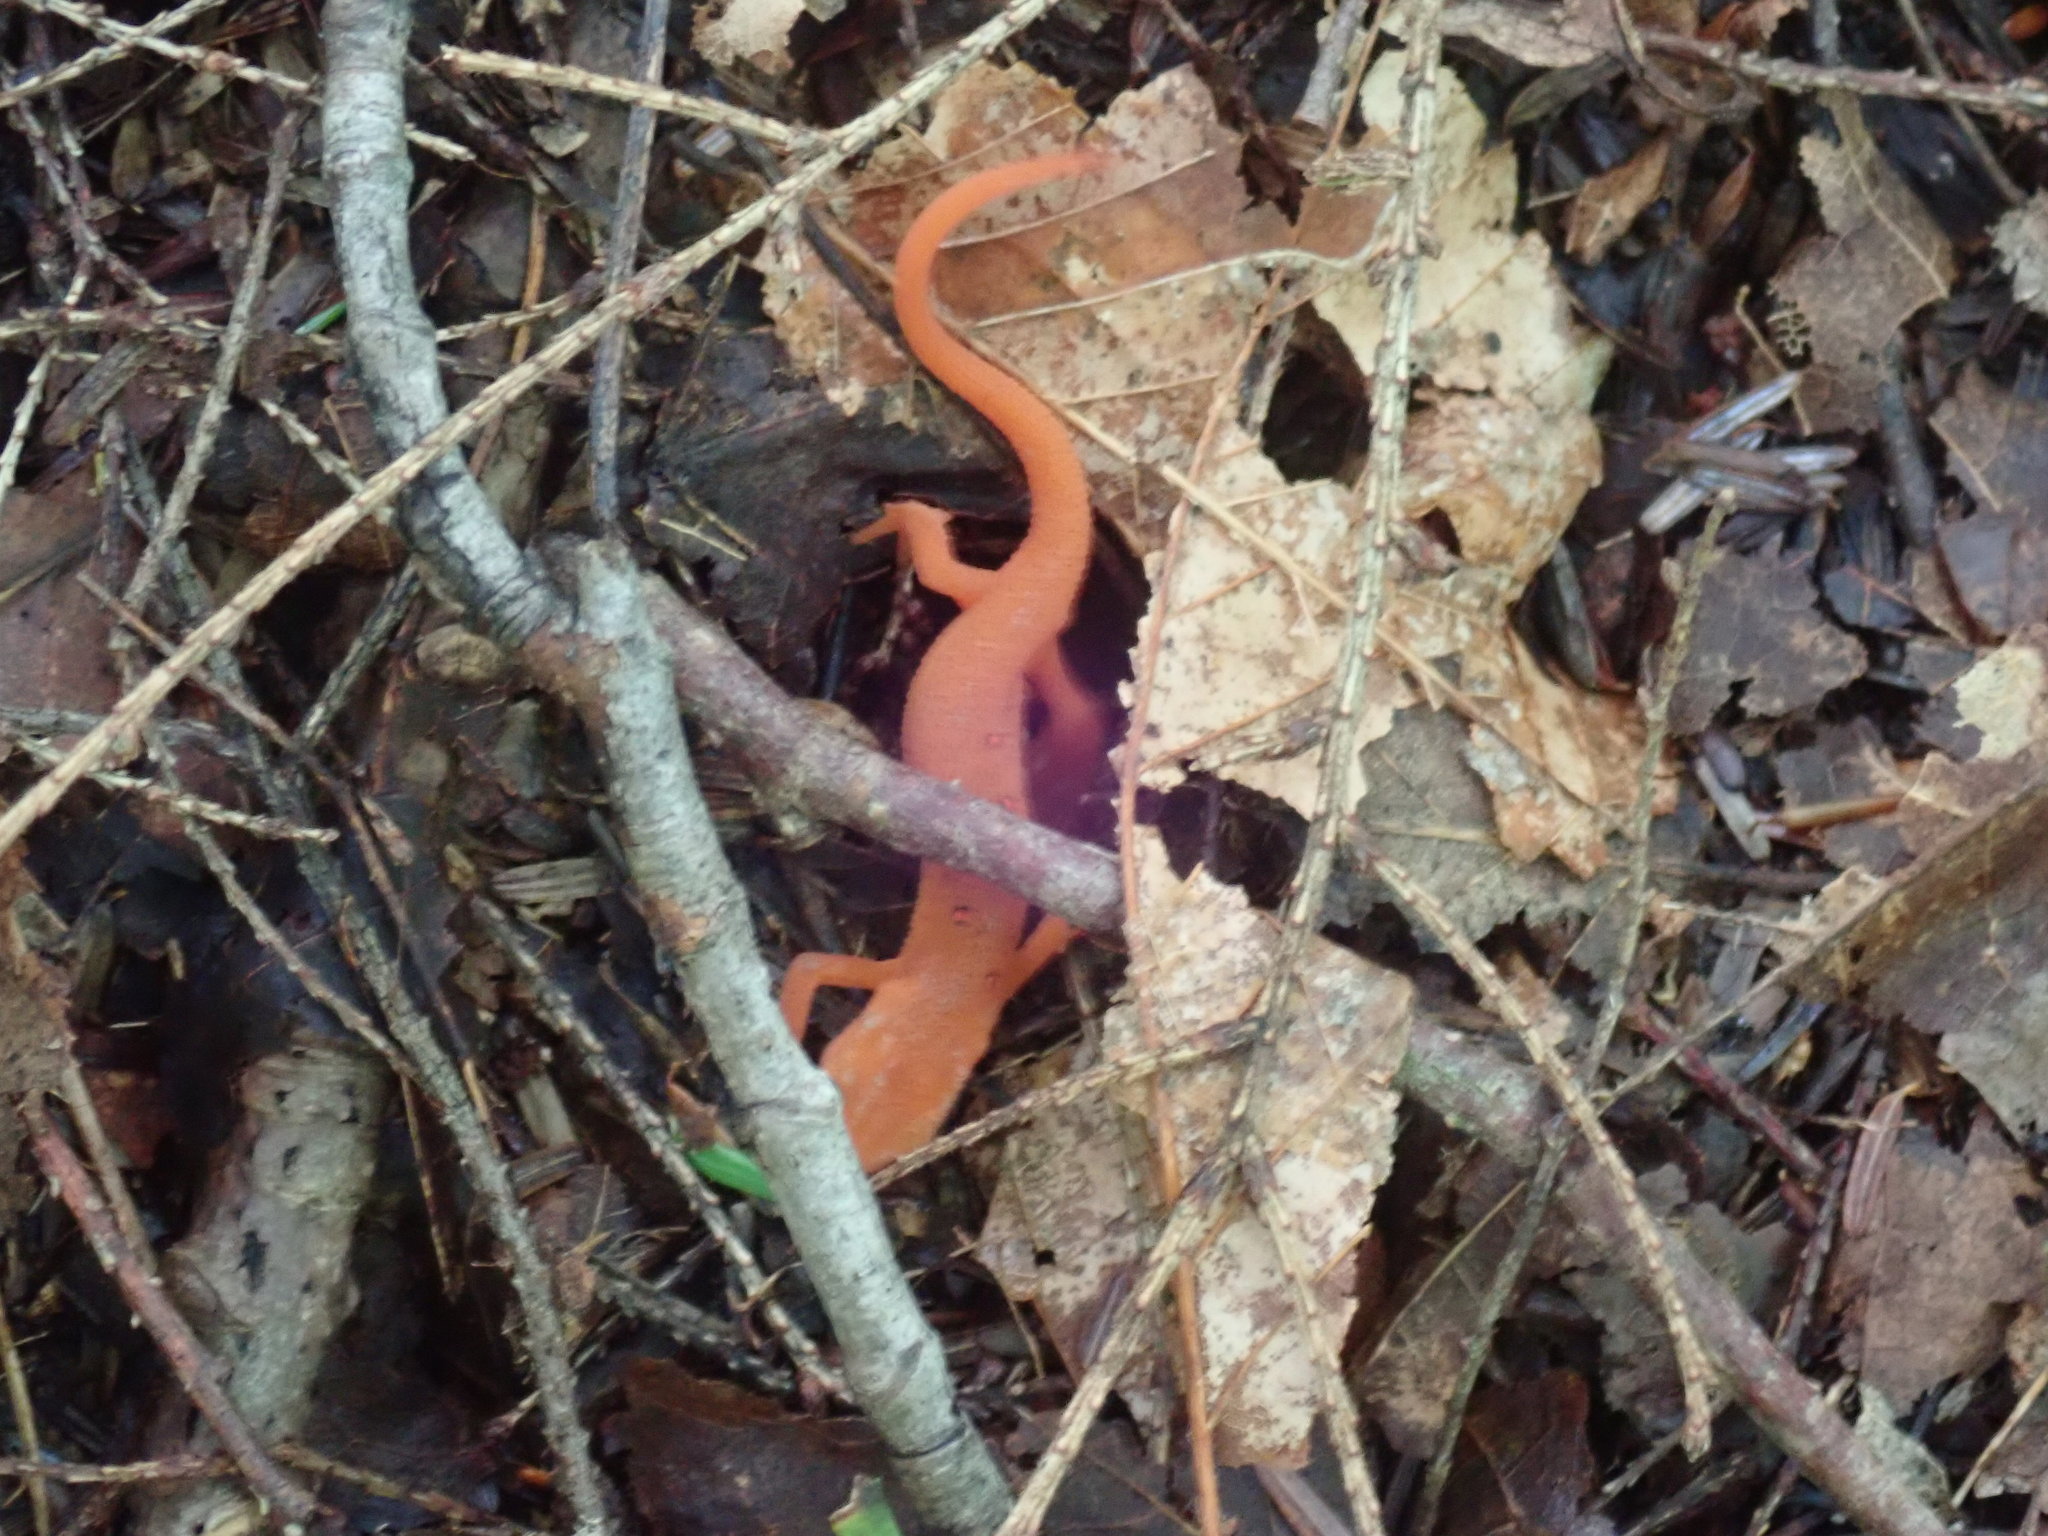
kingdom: Animalia
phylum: Chordata
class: Amphibia
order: Caudata
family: Salamandridae
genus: Notophthalmus
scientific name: Notophthalmus viridescens
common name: Eastern newt
